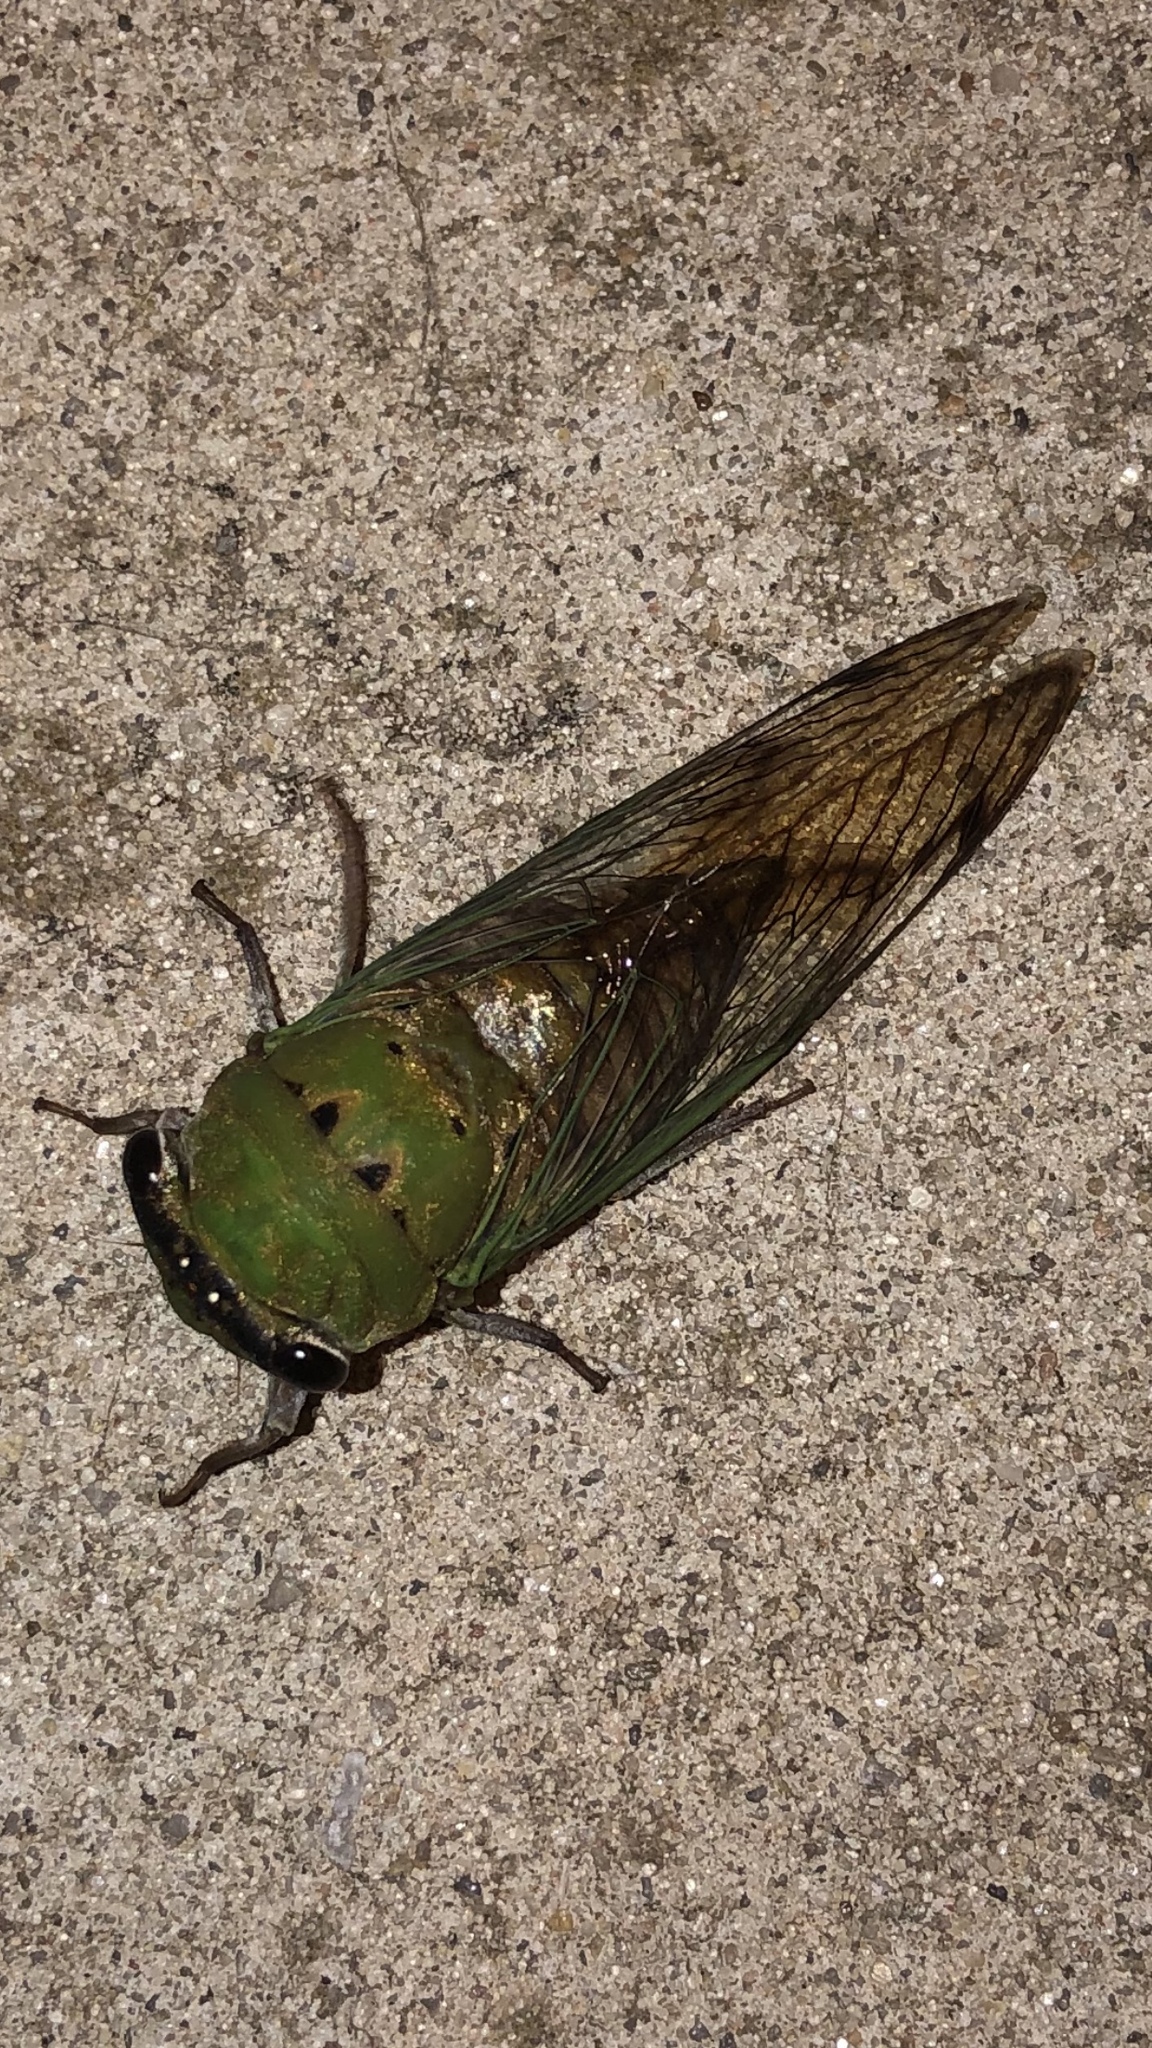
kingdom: Animalia
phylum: Arthropoda
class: Insecta
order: Hemiptera
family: Cicadidae
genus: Neotibicen
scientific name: Neotibicen superbus
